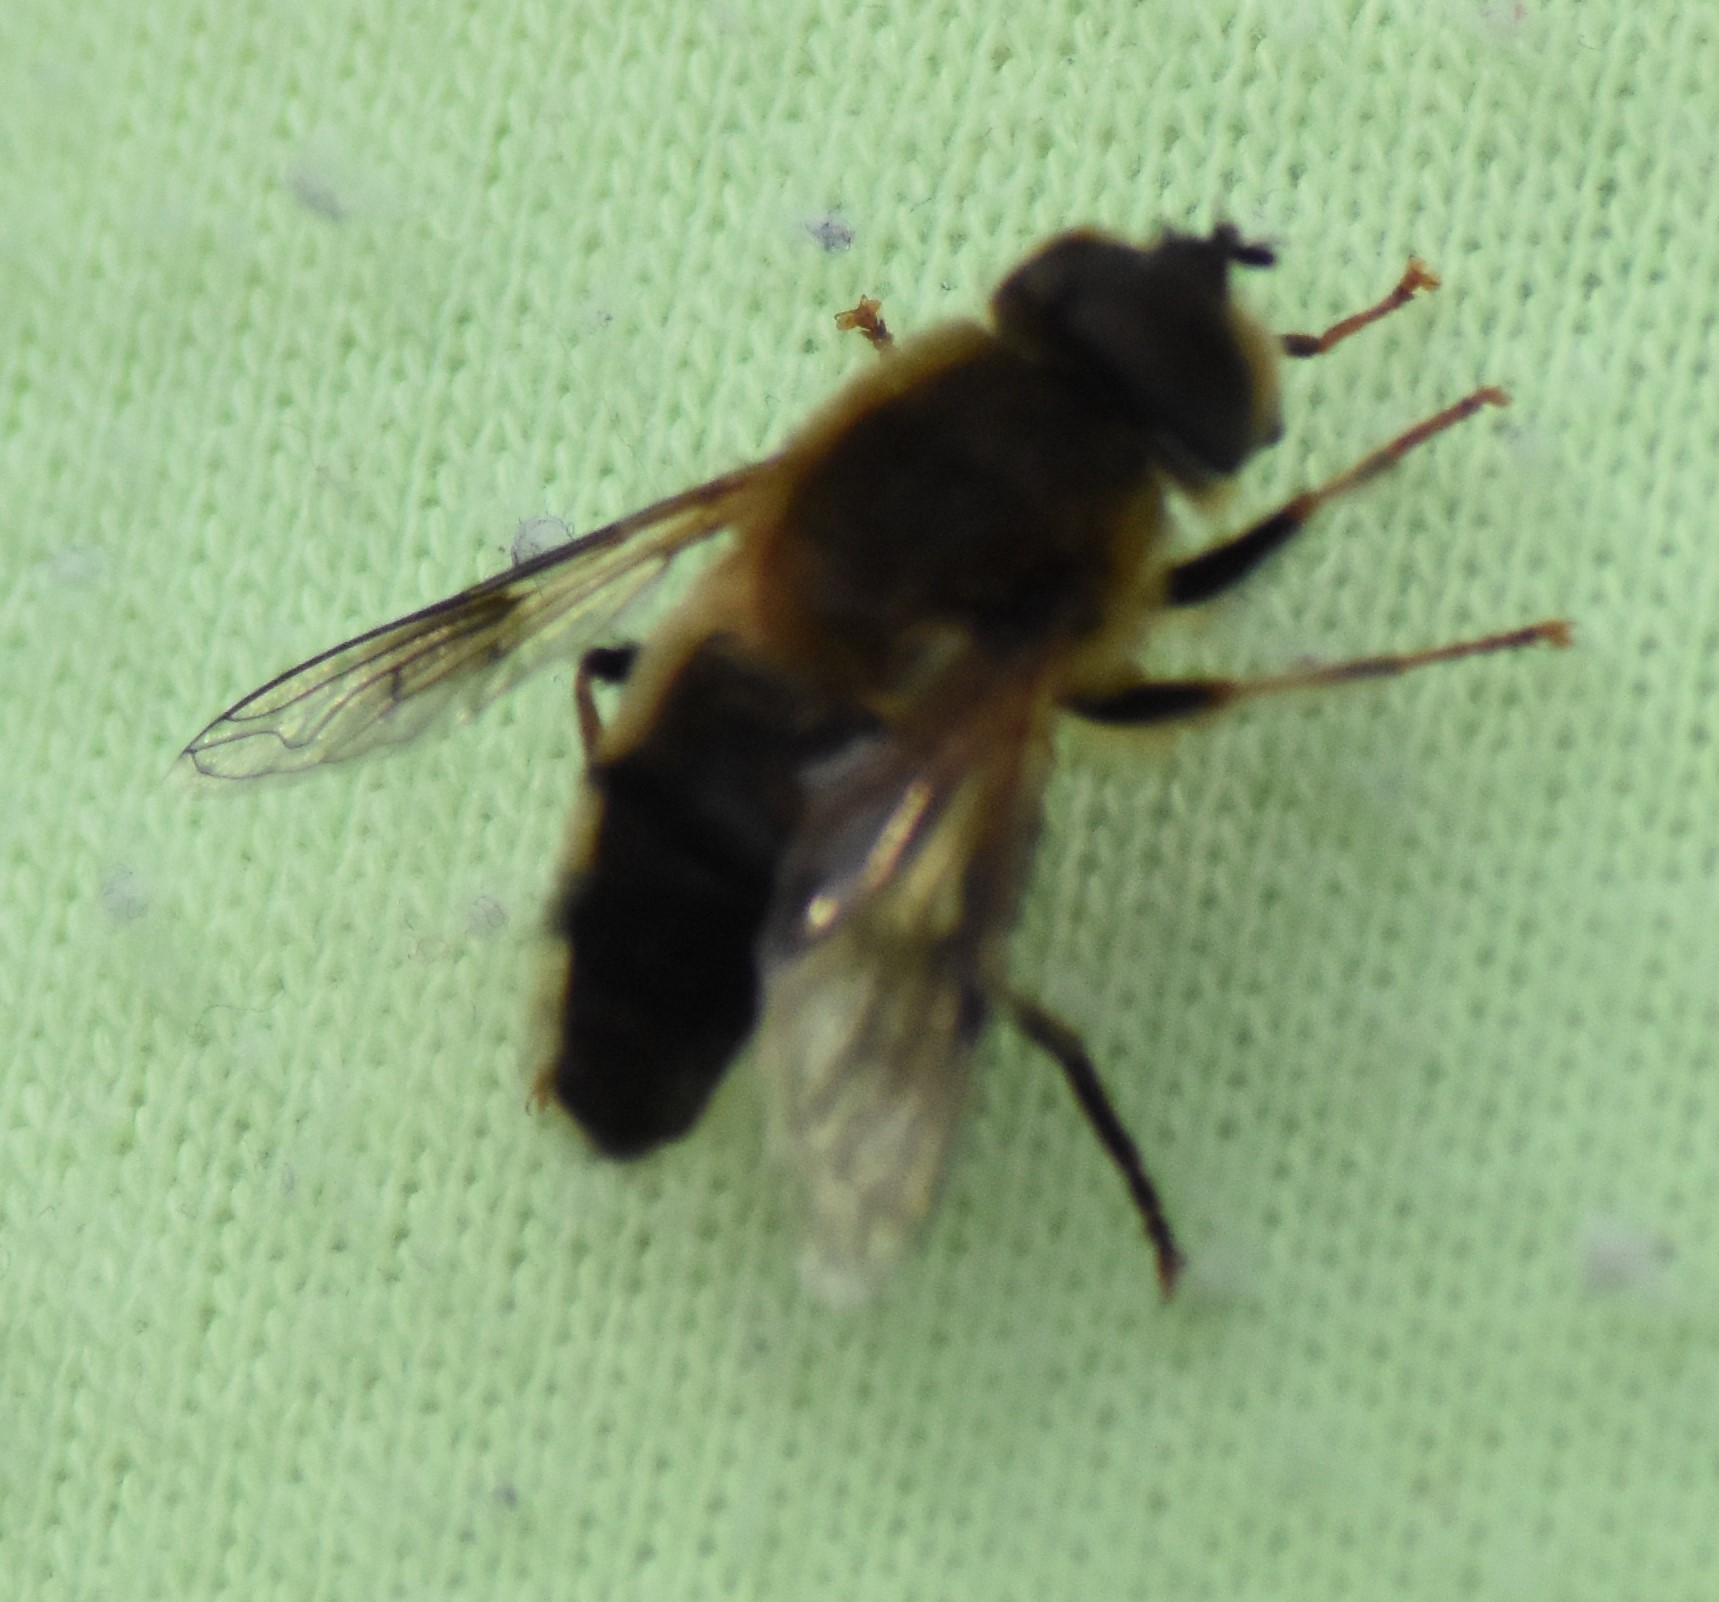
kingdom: Animalia
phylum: Arthropoda
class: Insecta
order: Diptera
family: Syrphidae
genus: Eristalis
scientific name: Eristalis pertinax
